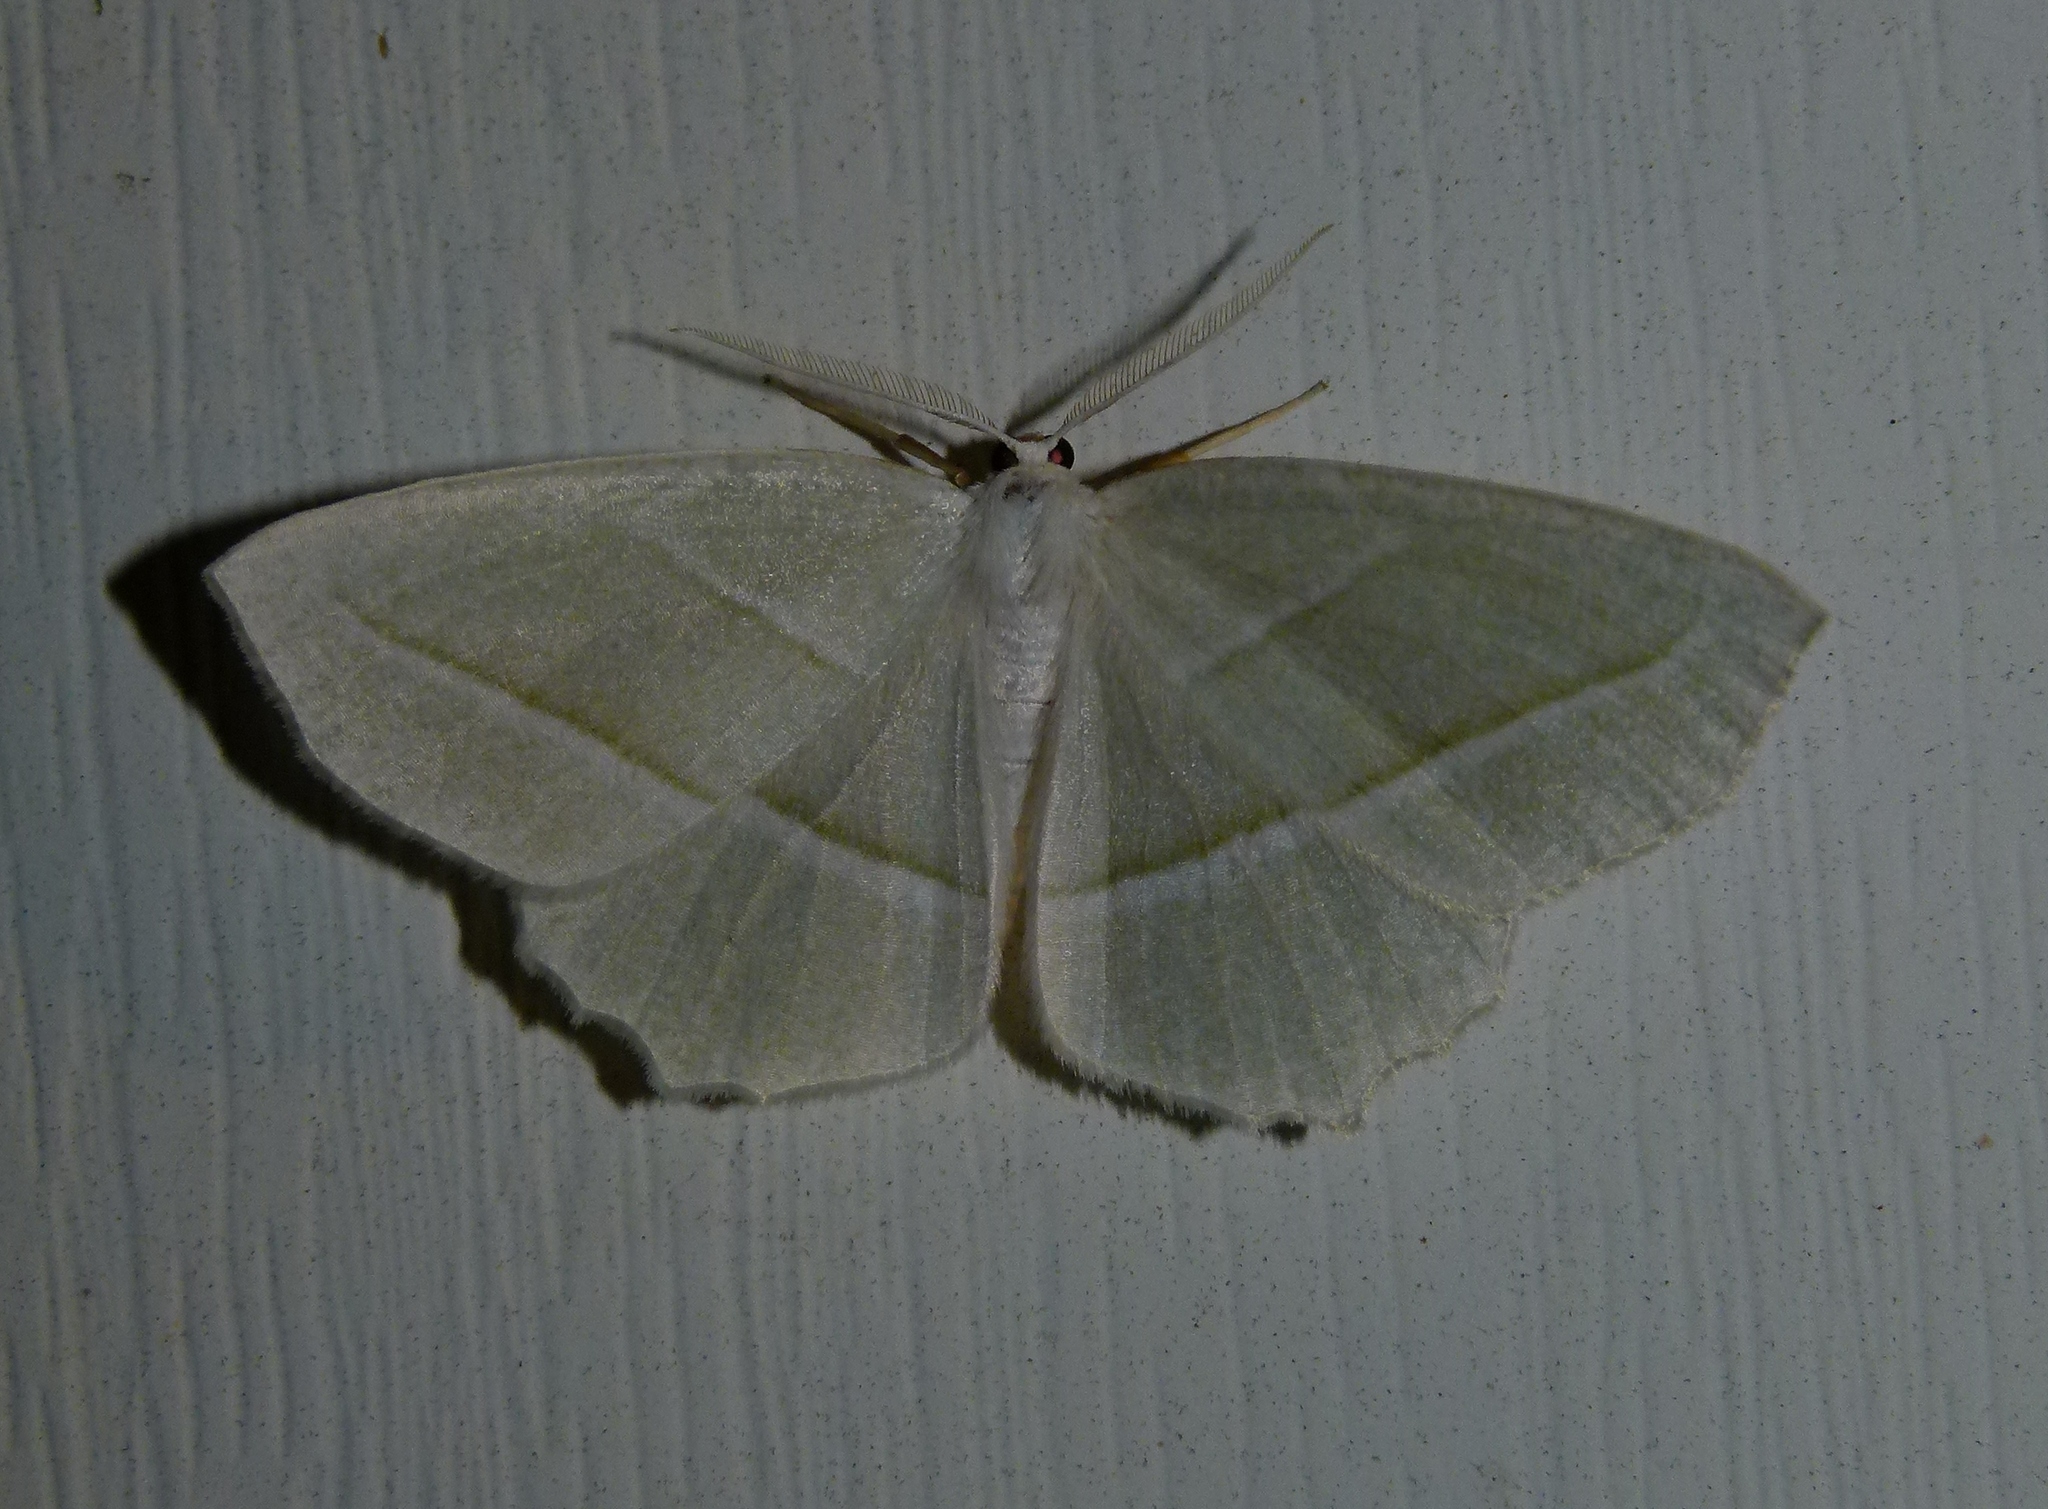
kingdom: Animalia
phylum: Arthropoda
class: Insecta
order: Lepidoptera
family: Geometridae
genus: Campaea
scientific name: Campaea perlata
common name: Fringed looper
